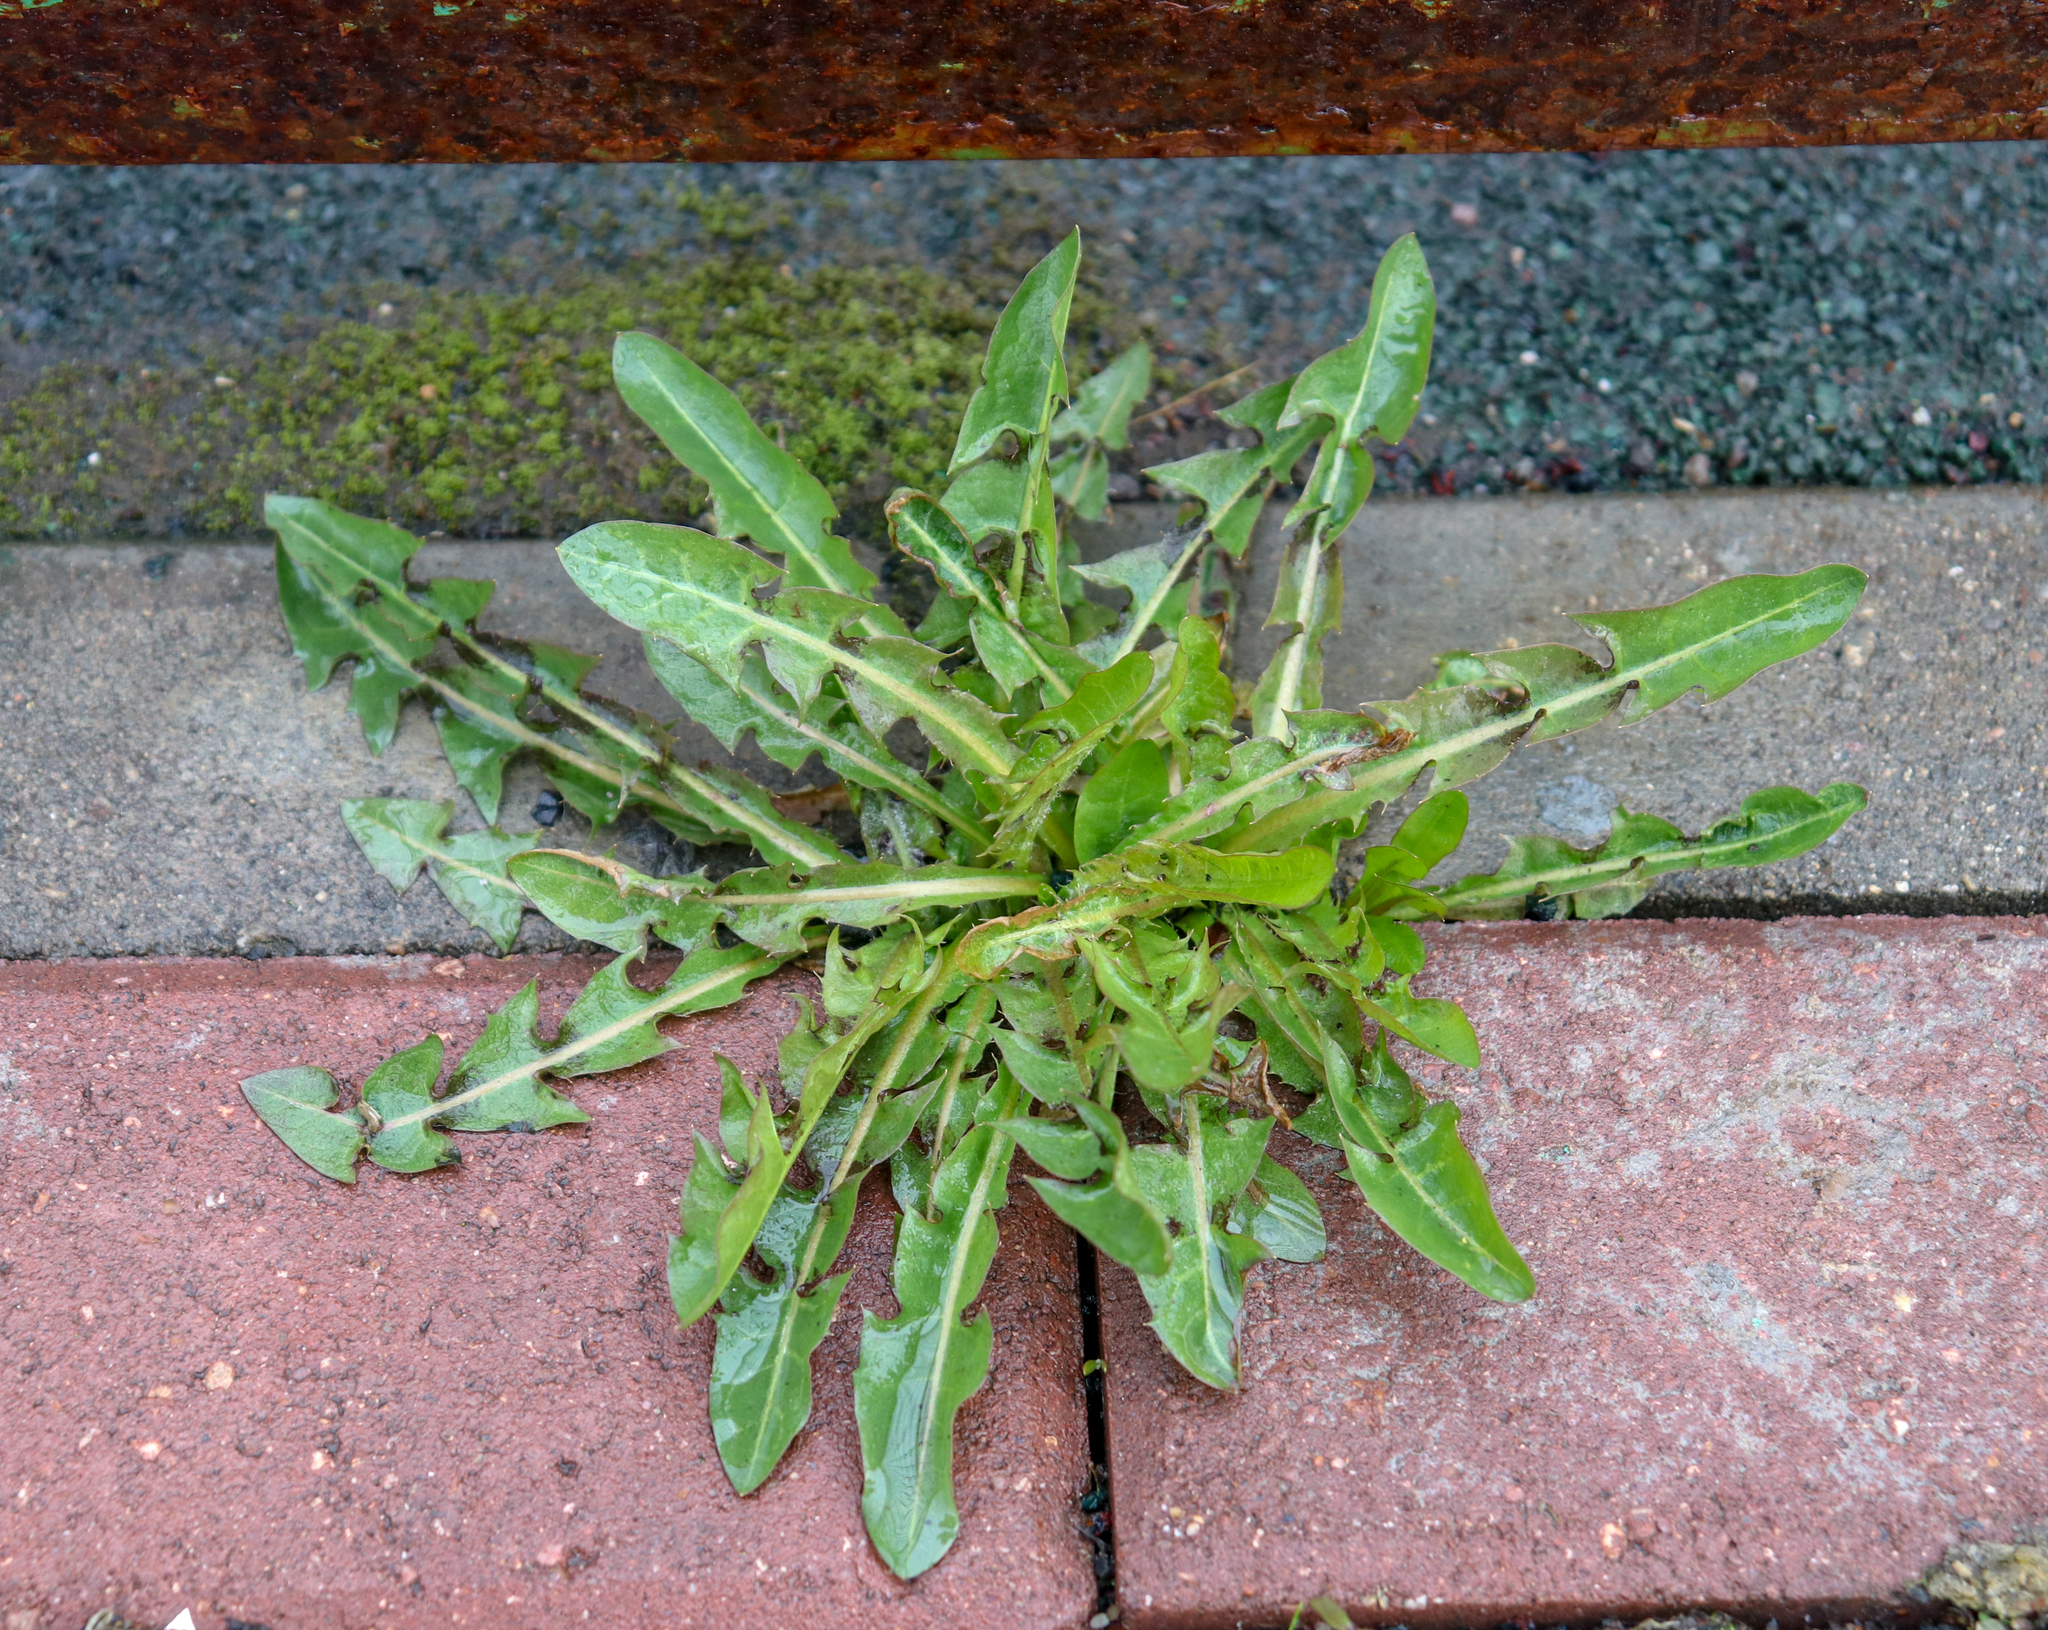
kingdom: Plantae
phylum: Tracheophyta
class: Magnoliopsida
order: Asterales
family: Asteraceae
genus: Taraxacum
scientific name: Taraxacum officinale
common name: Common dandelion
